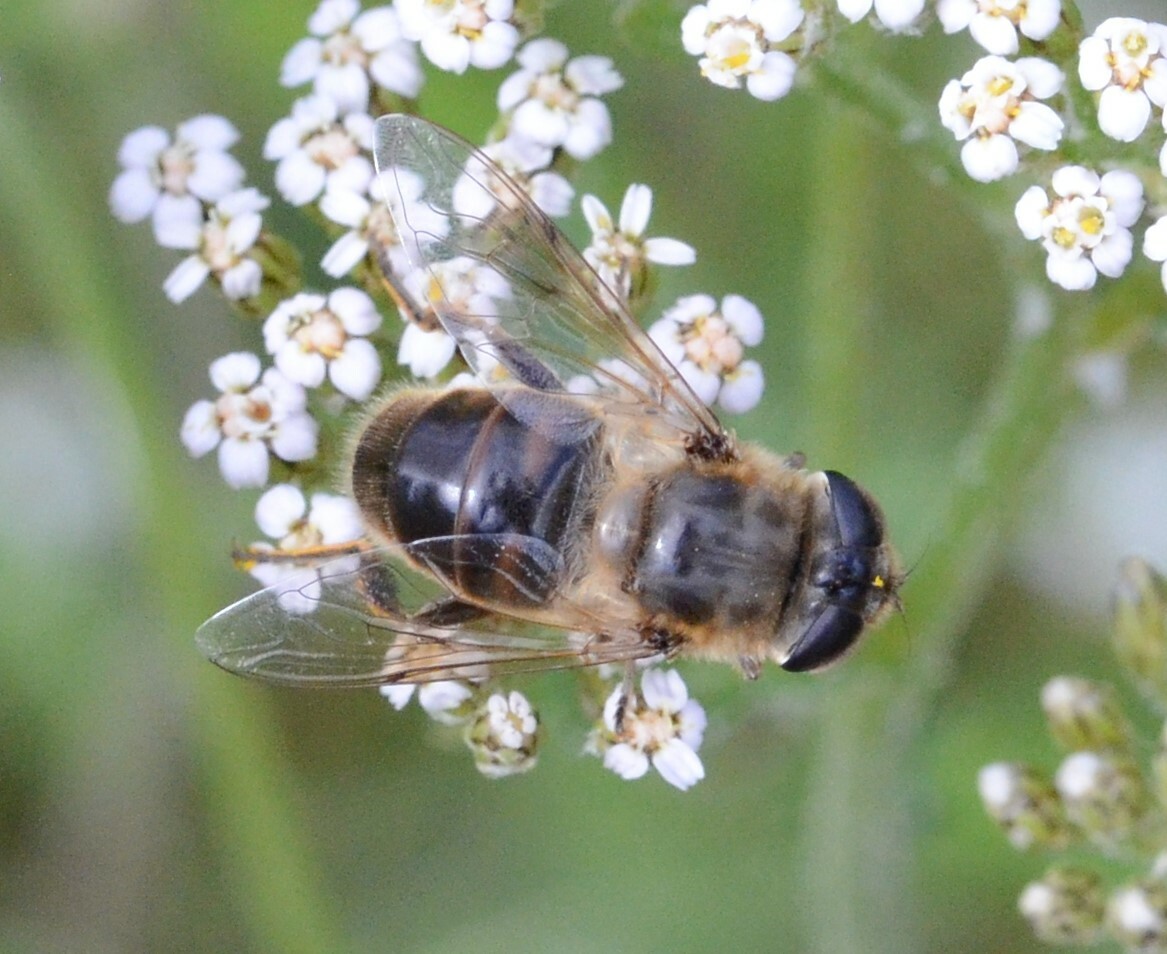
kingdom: Animalia
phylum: Arthropoda
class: Insecta
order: Diptera
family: Syrphidae
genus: Eristalis
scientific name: Eristalis tenax
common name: Drone fly
